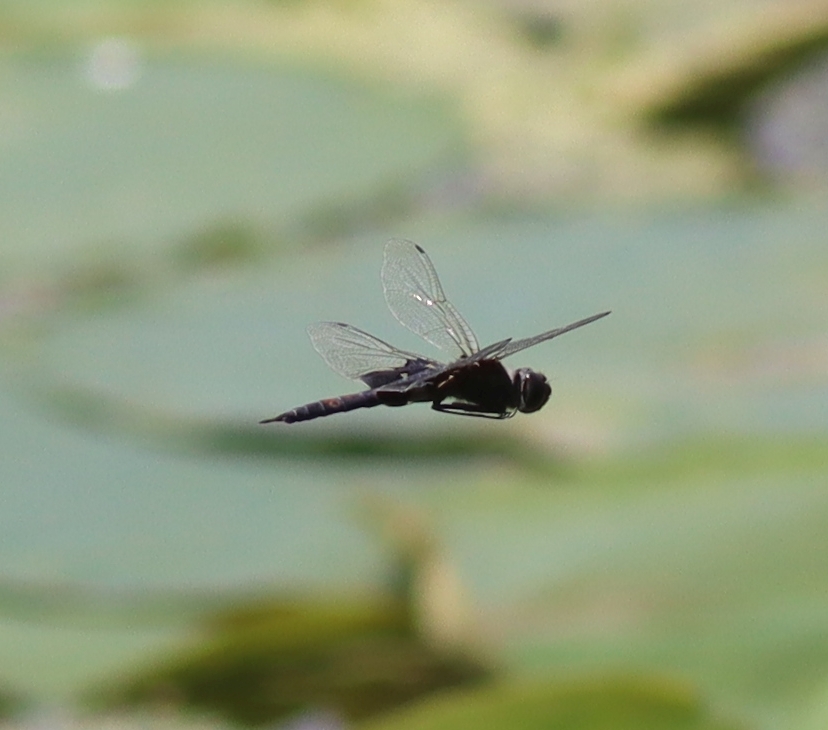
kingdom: Animalia
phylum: Arthropoda
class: Insecta
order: Odonata
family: Libellulidae
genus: Tramea
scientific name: Tramea lacerata
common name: Black saddlebags
